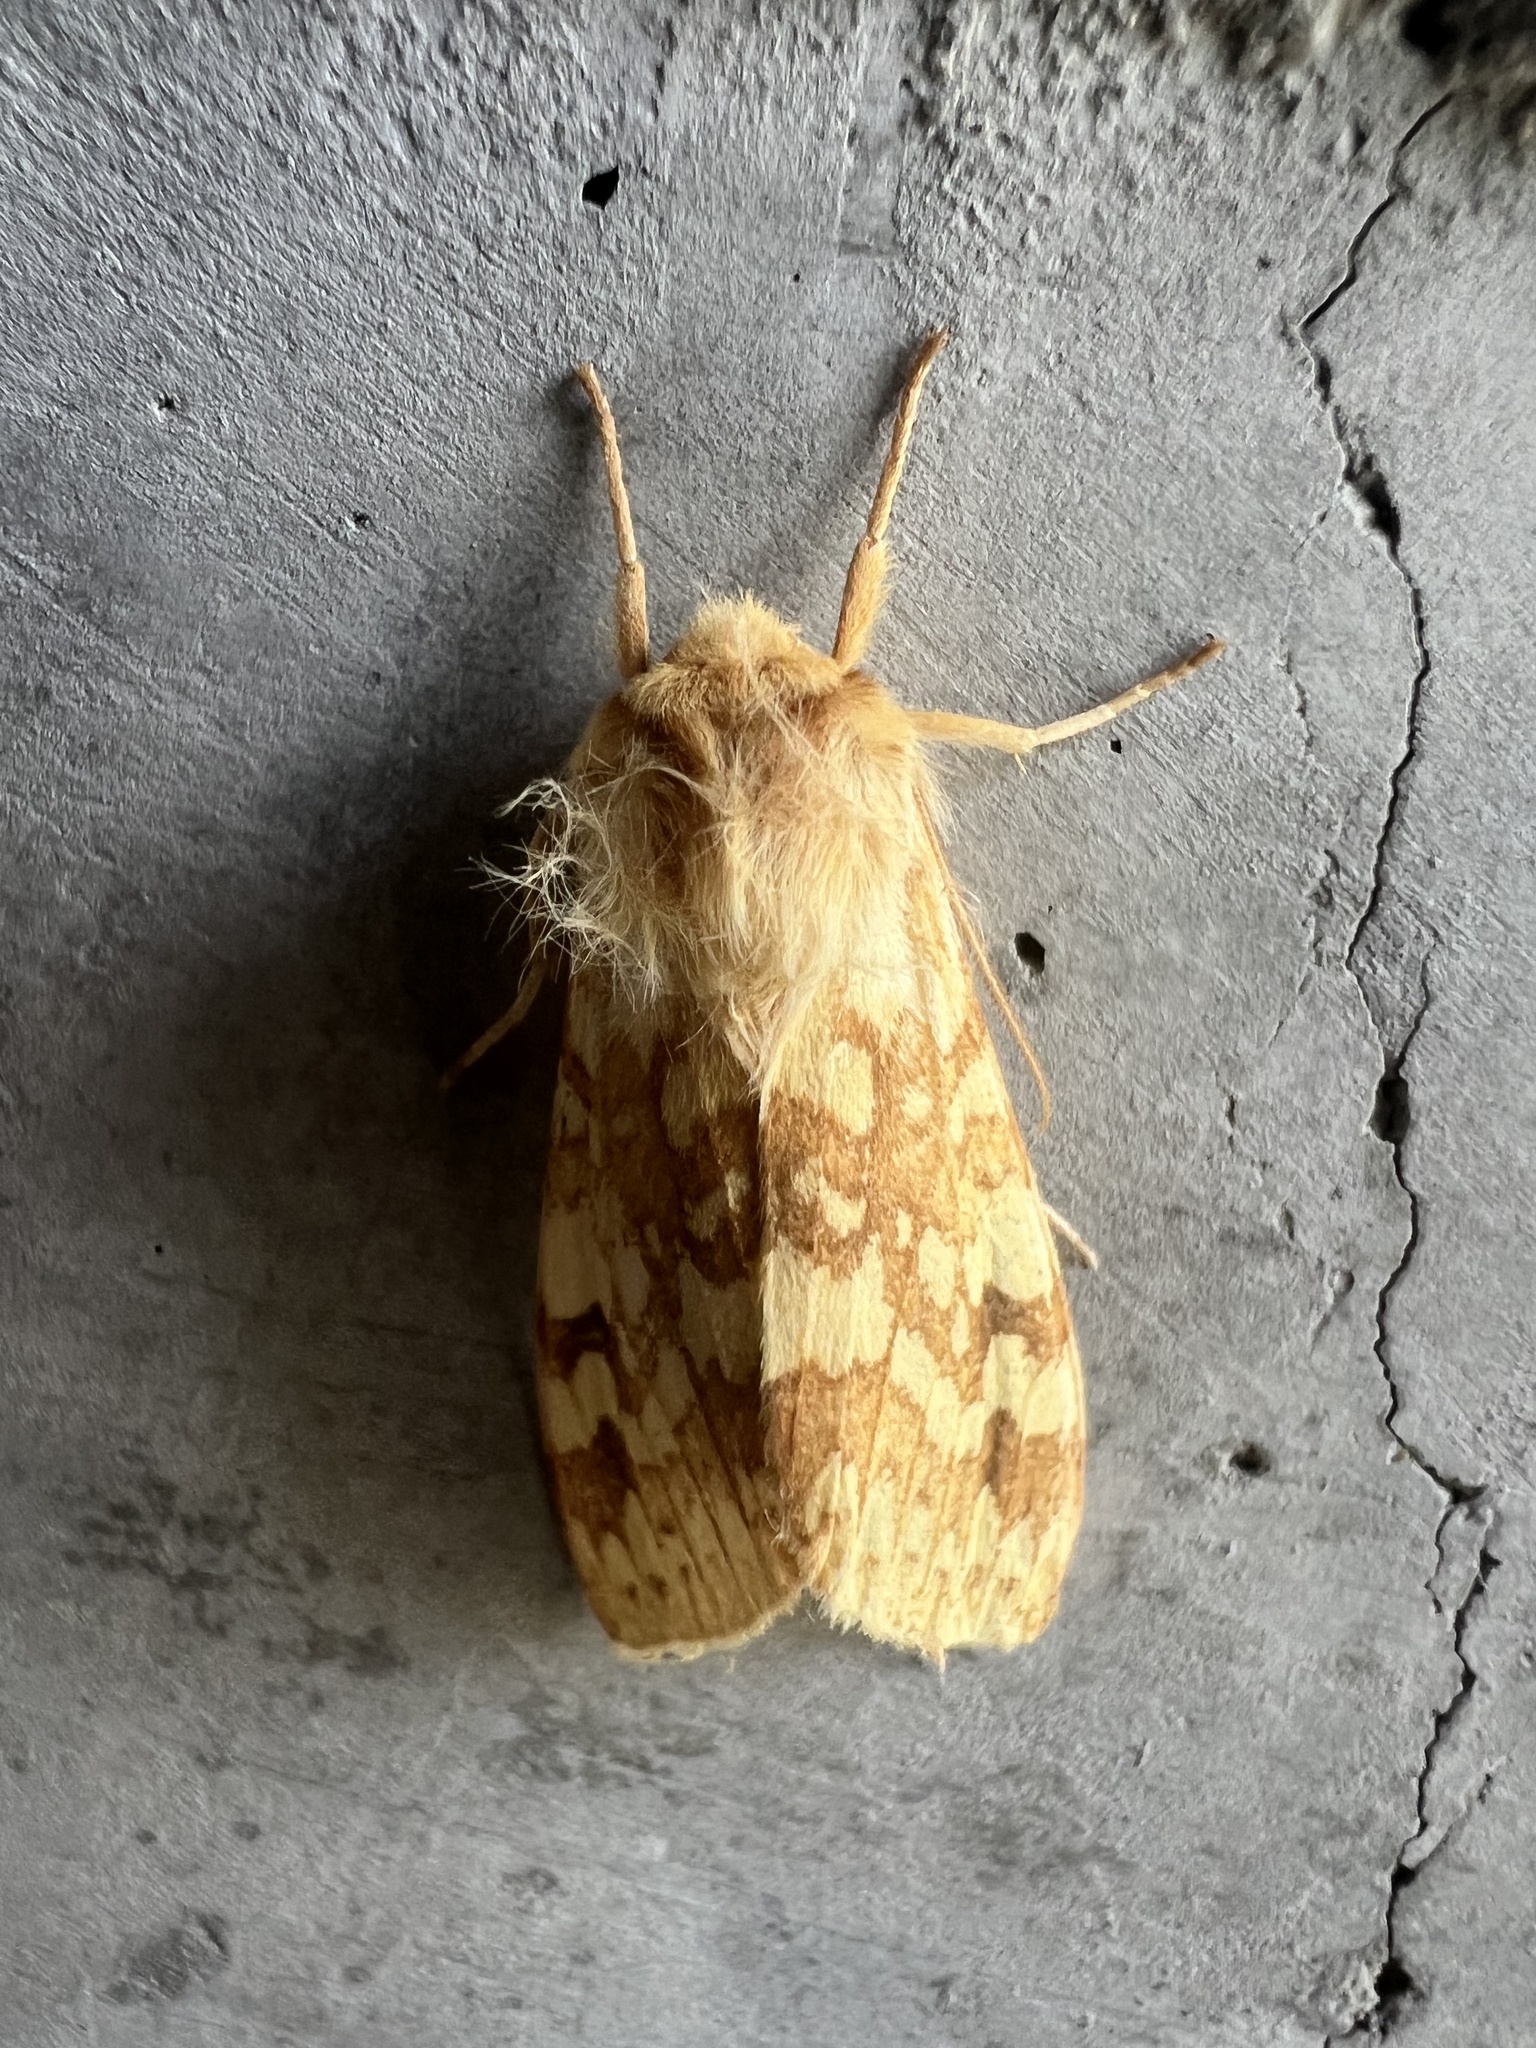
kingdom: Animalia
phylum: Arthropoda
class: Insecta
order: Lepidoptera
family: Erebidae
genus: Lophocampa
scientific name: Lophocampa maculata
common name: Spotted tussock moth
